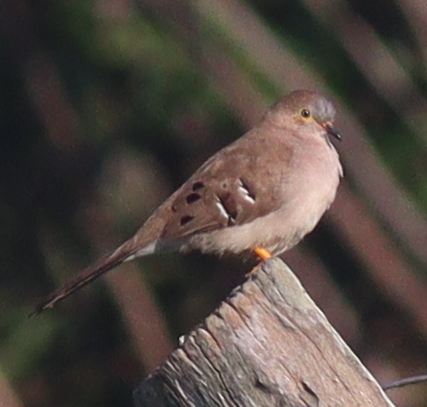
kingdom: Animalia
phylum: Chordata
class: Aves
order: Columbiformes
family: Columbidae
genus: Uropelia
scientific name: Uropelia campestris
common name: Long-tailed ground dove
